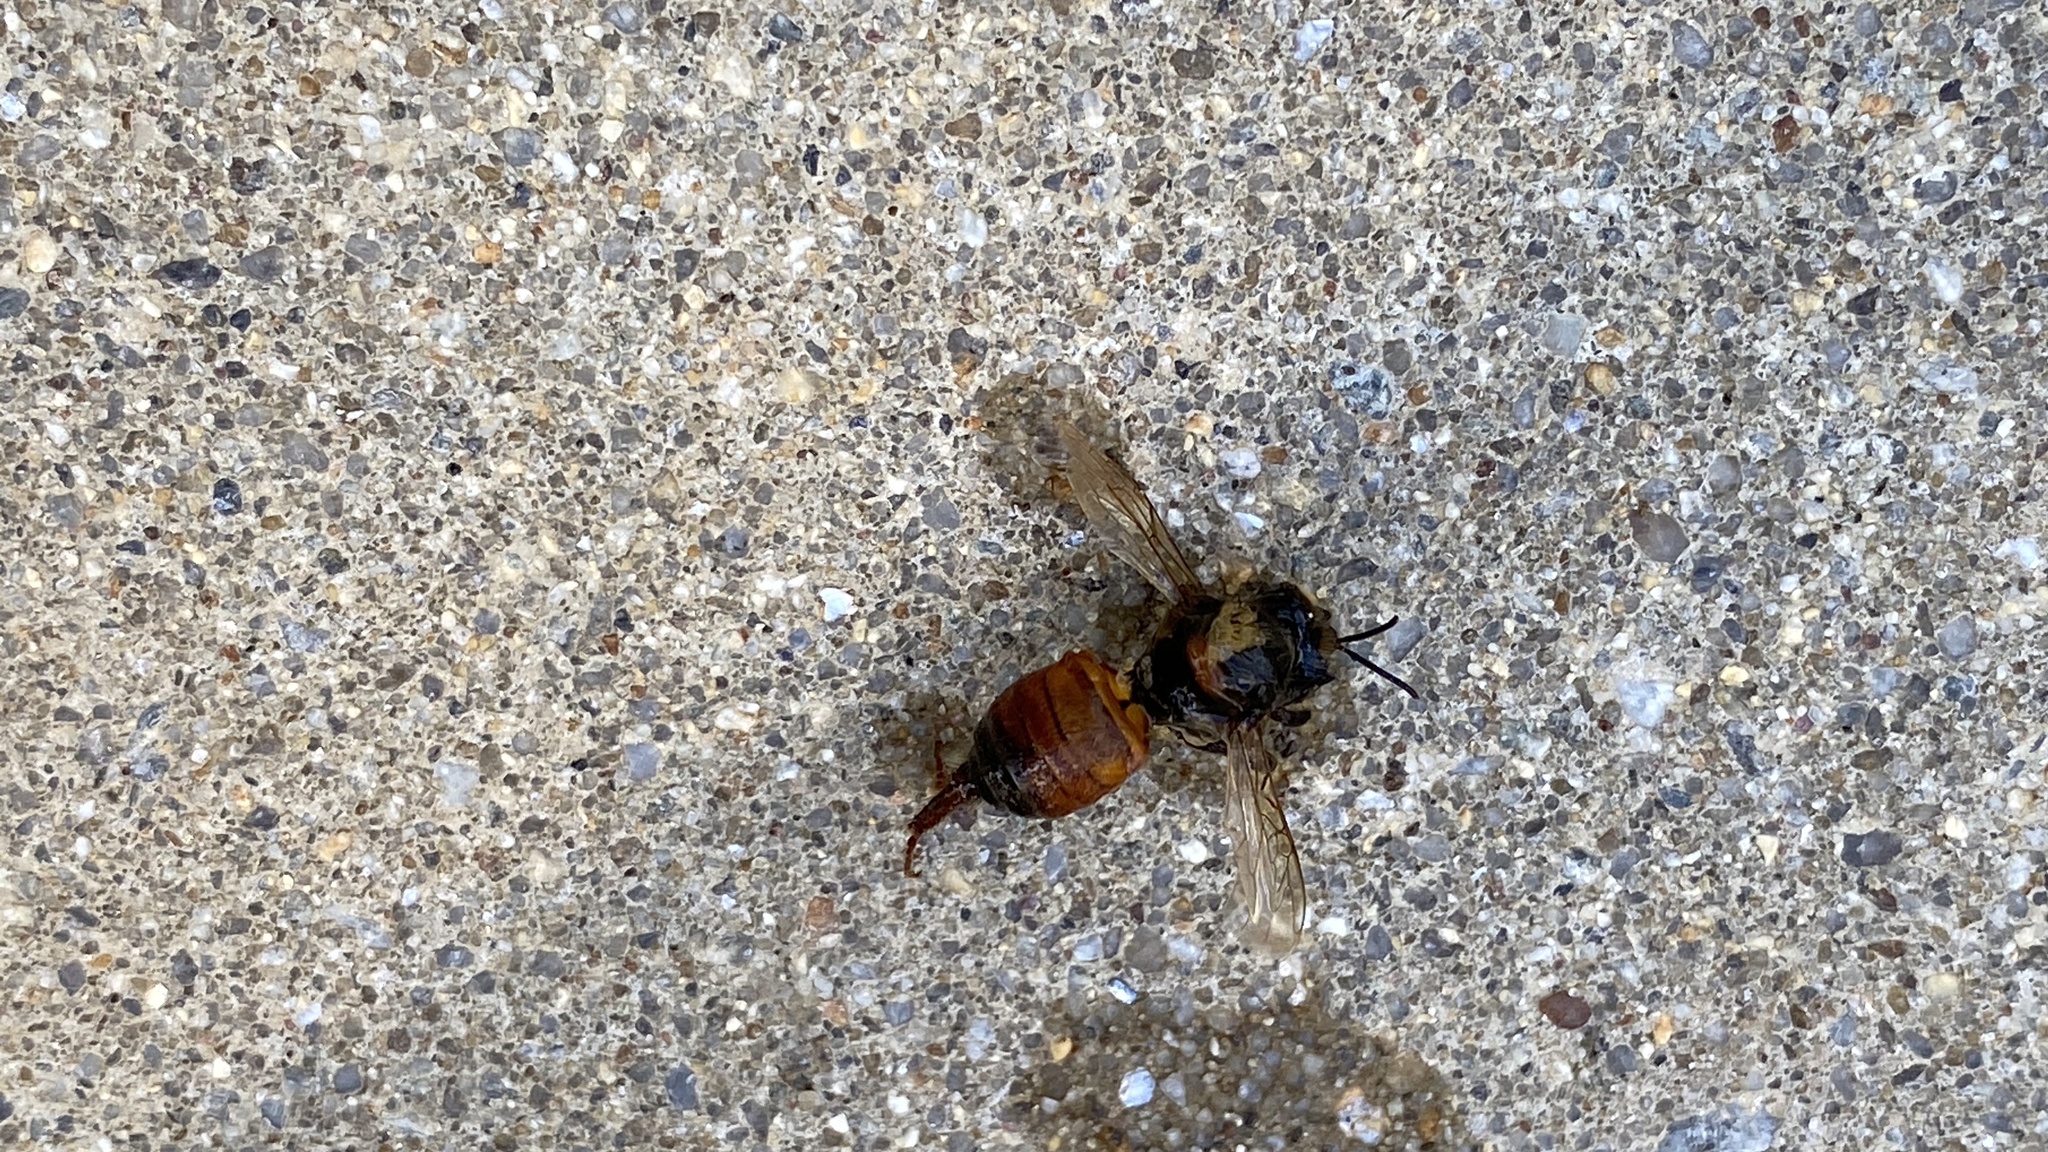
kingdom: Animalia
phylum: Arthropoda
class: Insecta
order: Hymenoptera
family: Apidae
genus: Apis
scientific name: Apis mellifera
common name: Honey bee
